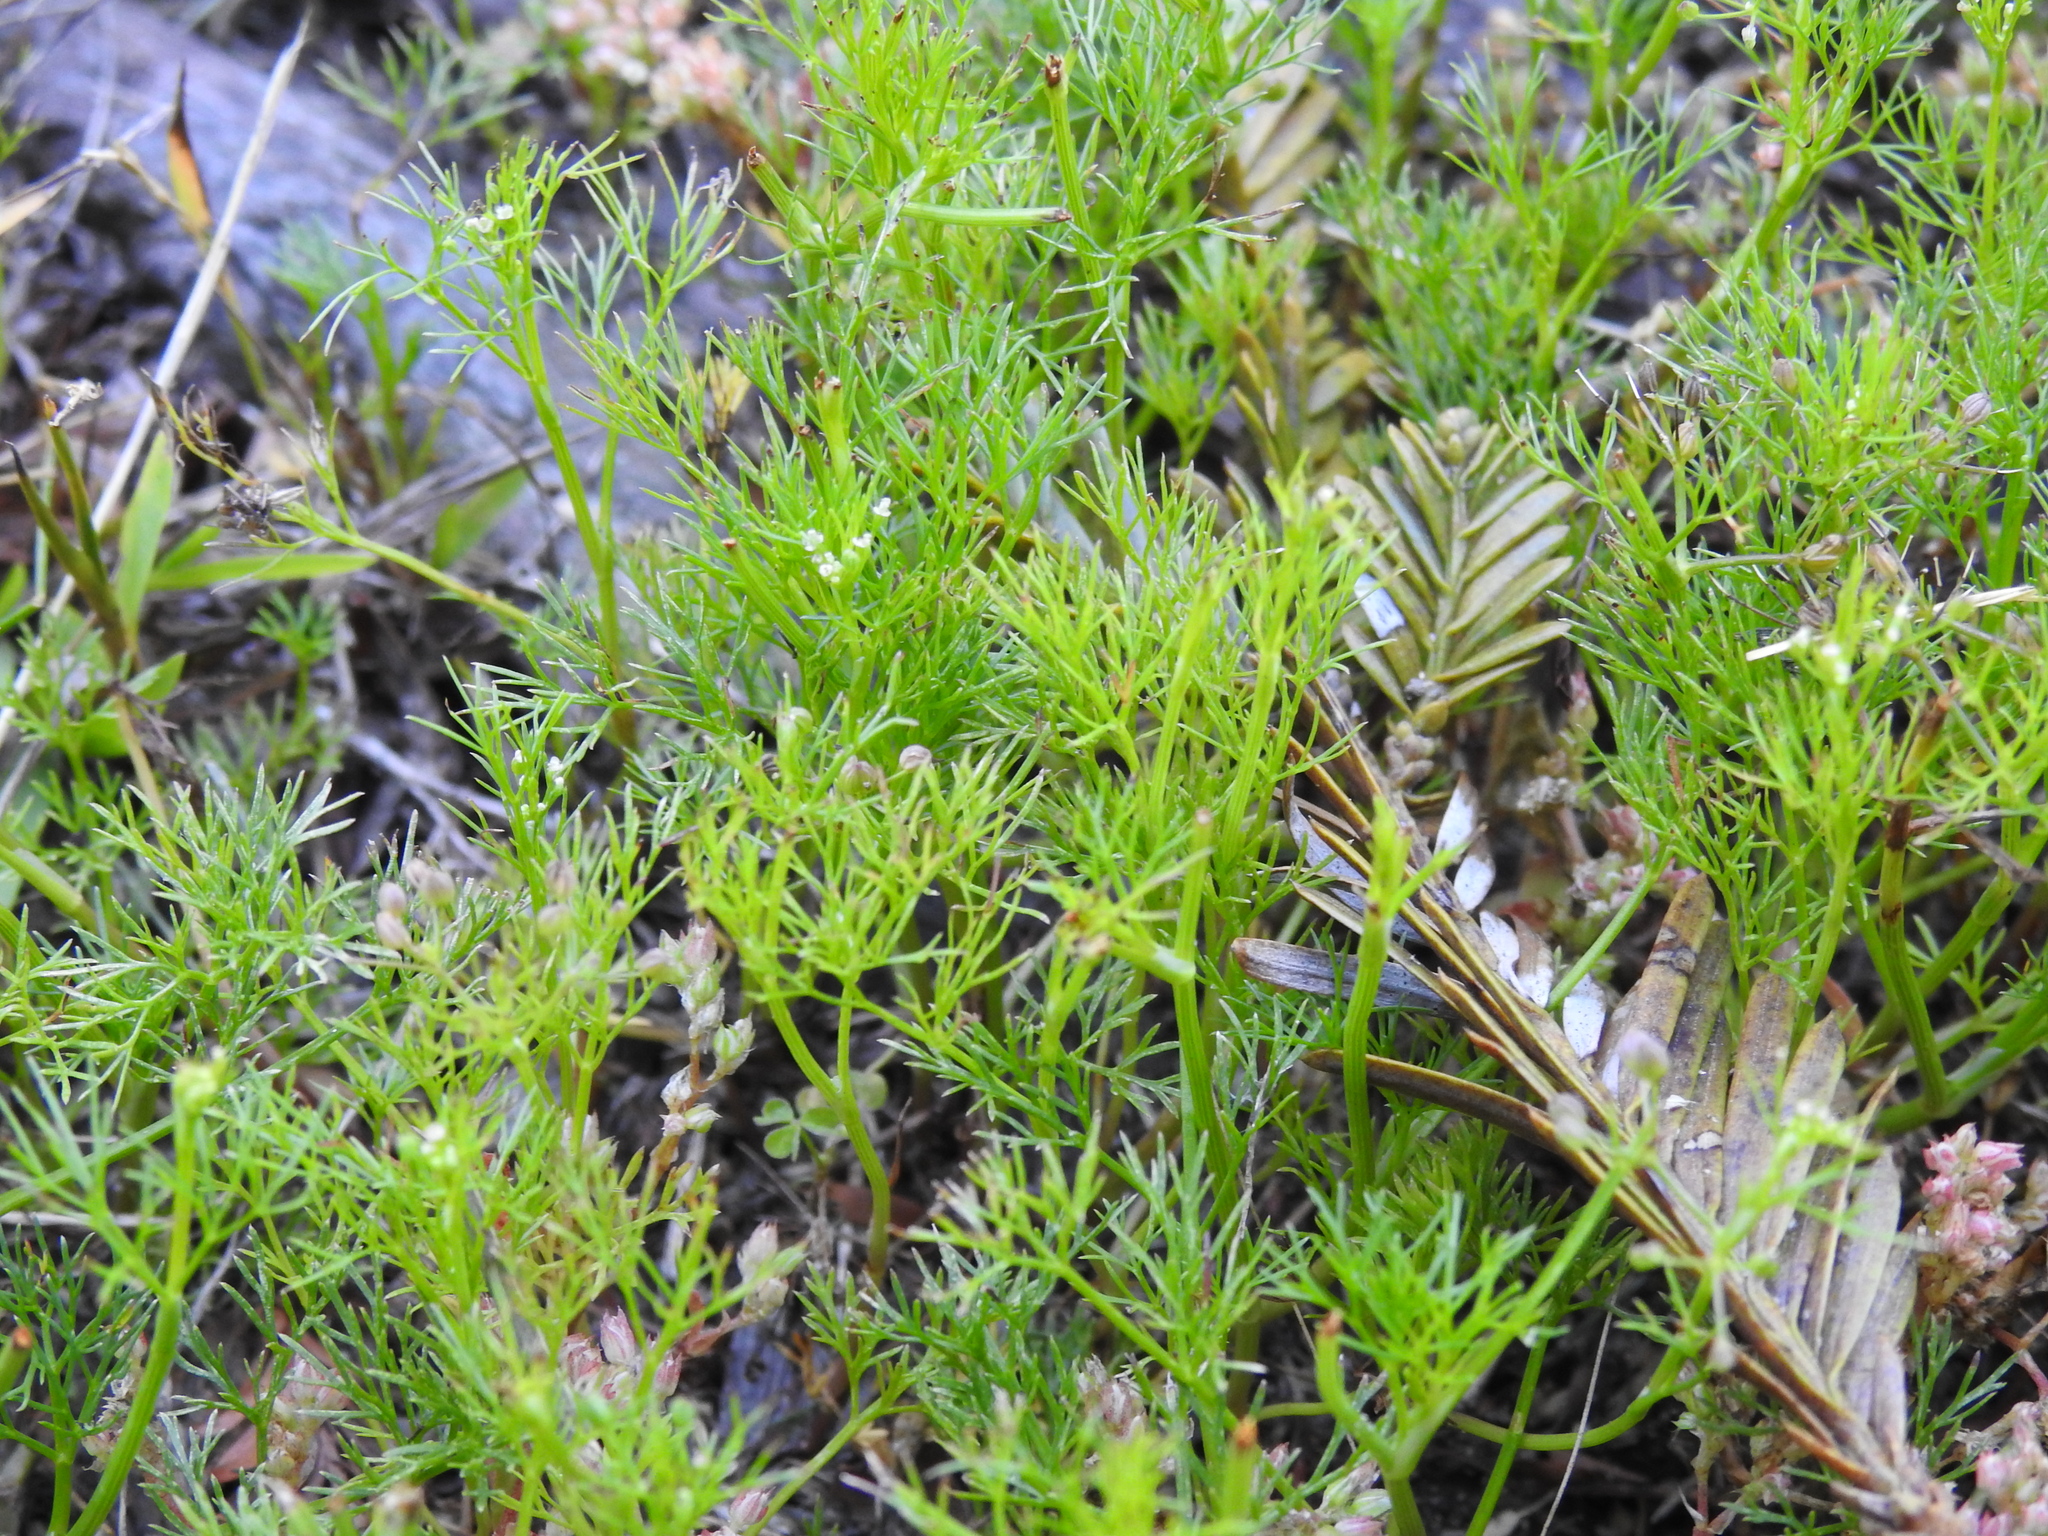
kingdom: Plantae
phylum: Tracheophyta
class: Magnoliopsida
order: Apiales
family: Apiaceae
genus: Cyclospermum
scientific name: Cyclospermum leptophyllum
